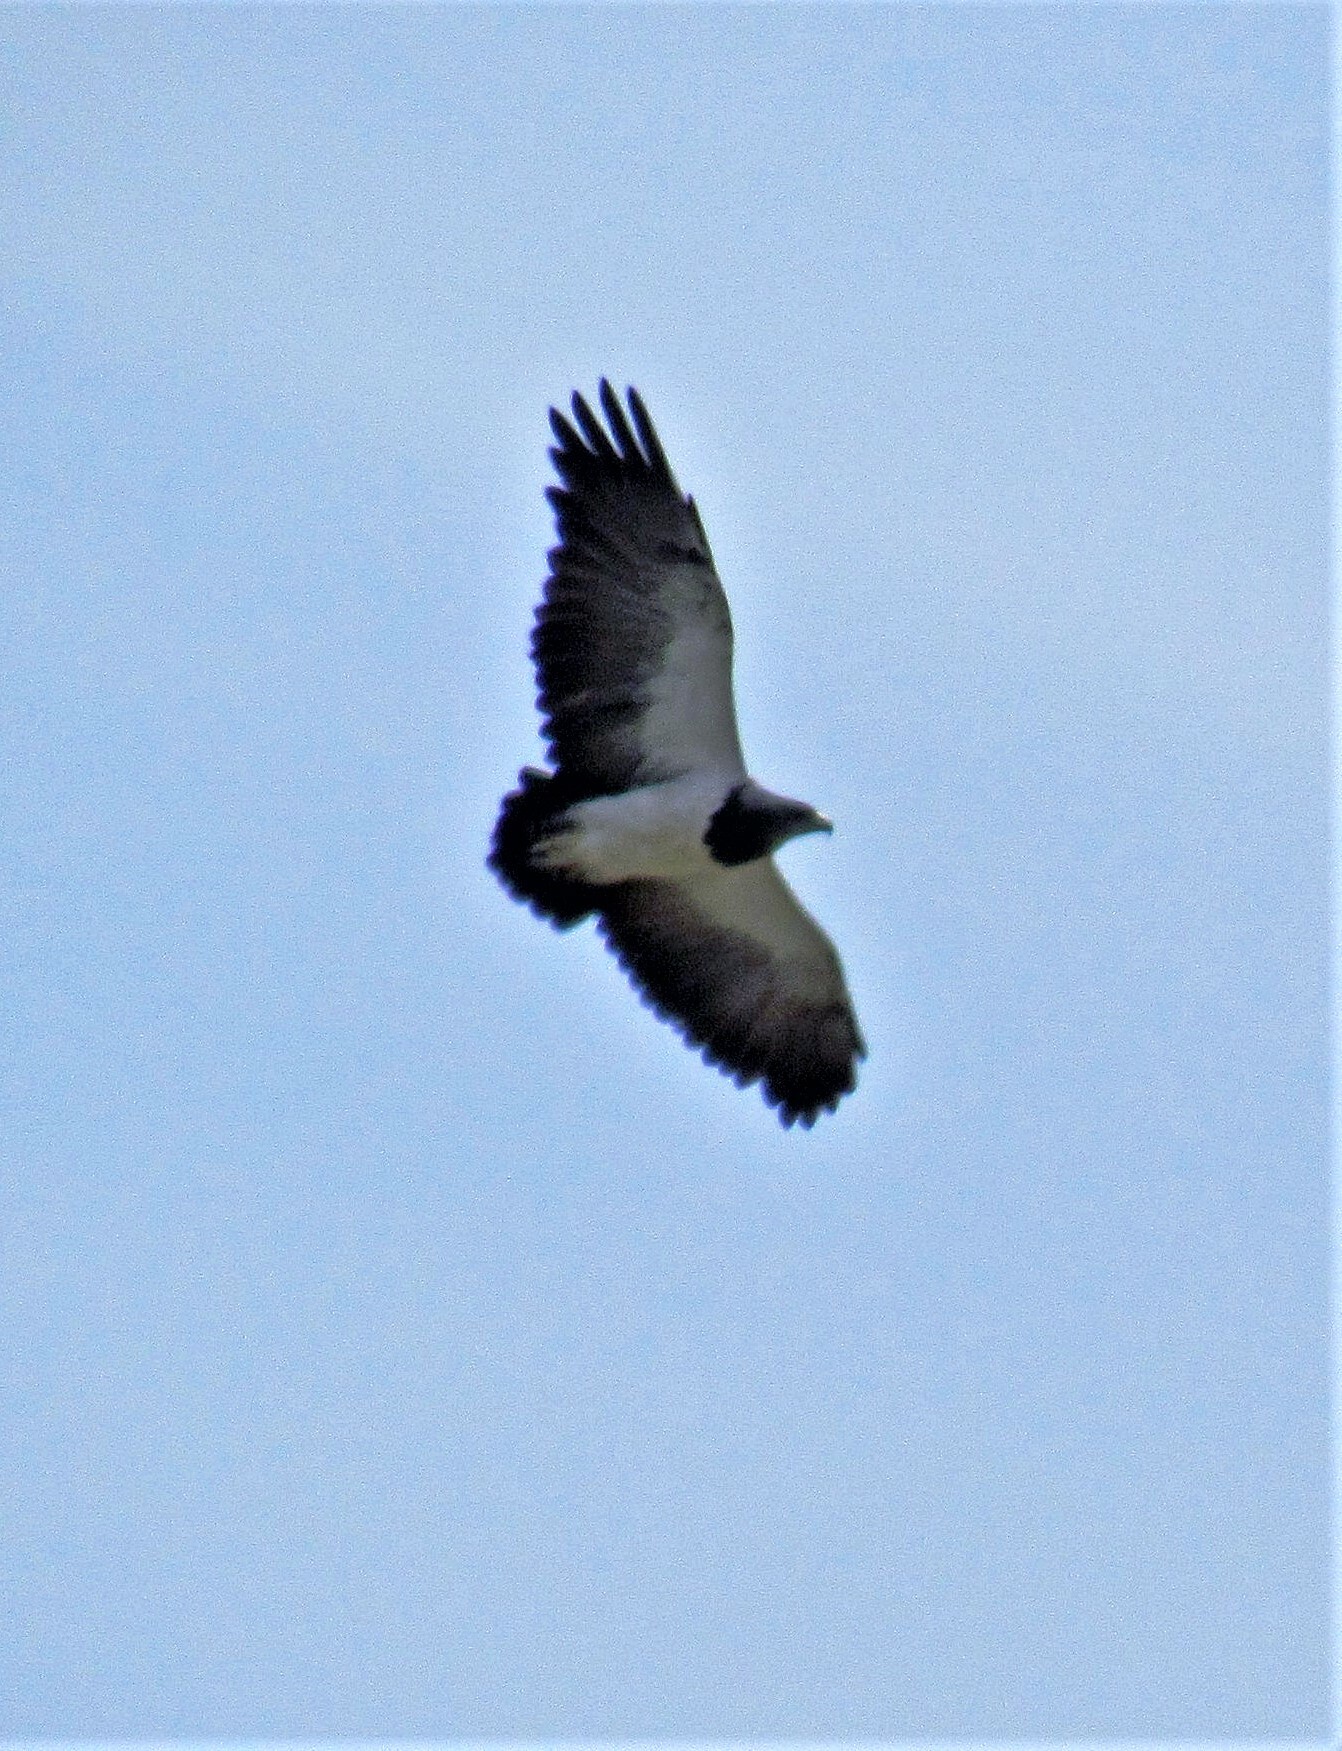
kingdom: Animalia
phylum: Chordata
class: Aves
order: Accipitriformes
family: Accipitridae
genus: Geranoaetus
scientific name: Geranoaetus melanoleucus
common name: Black-chested buzzard-eagle
